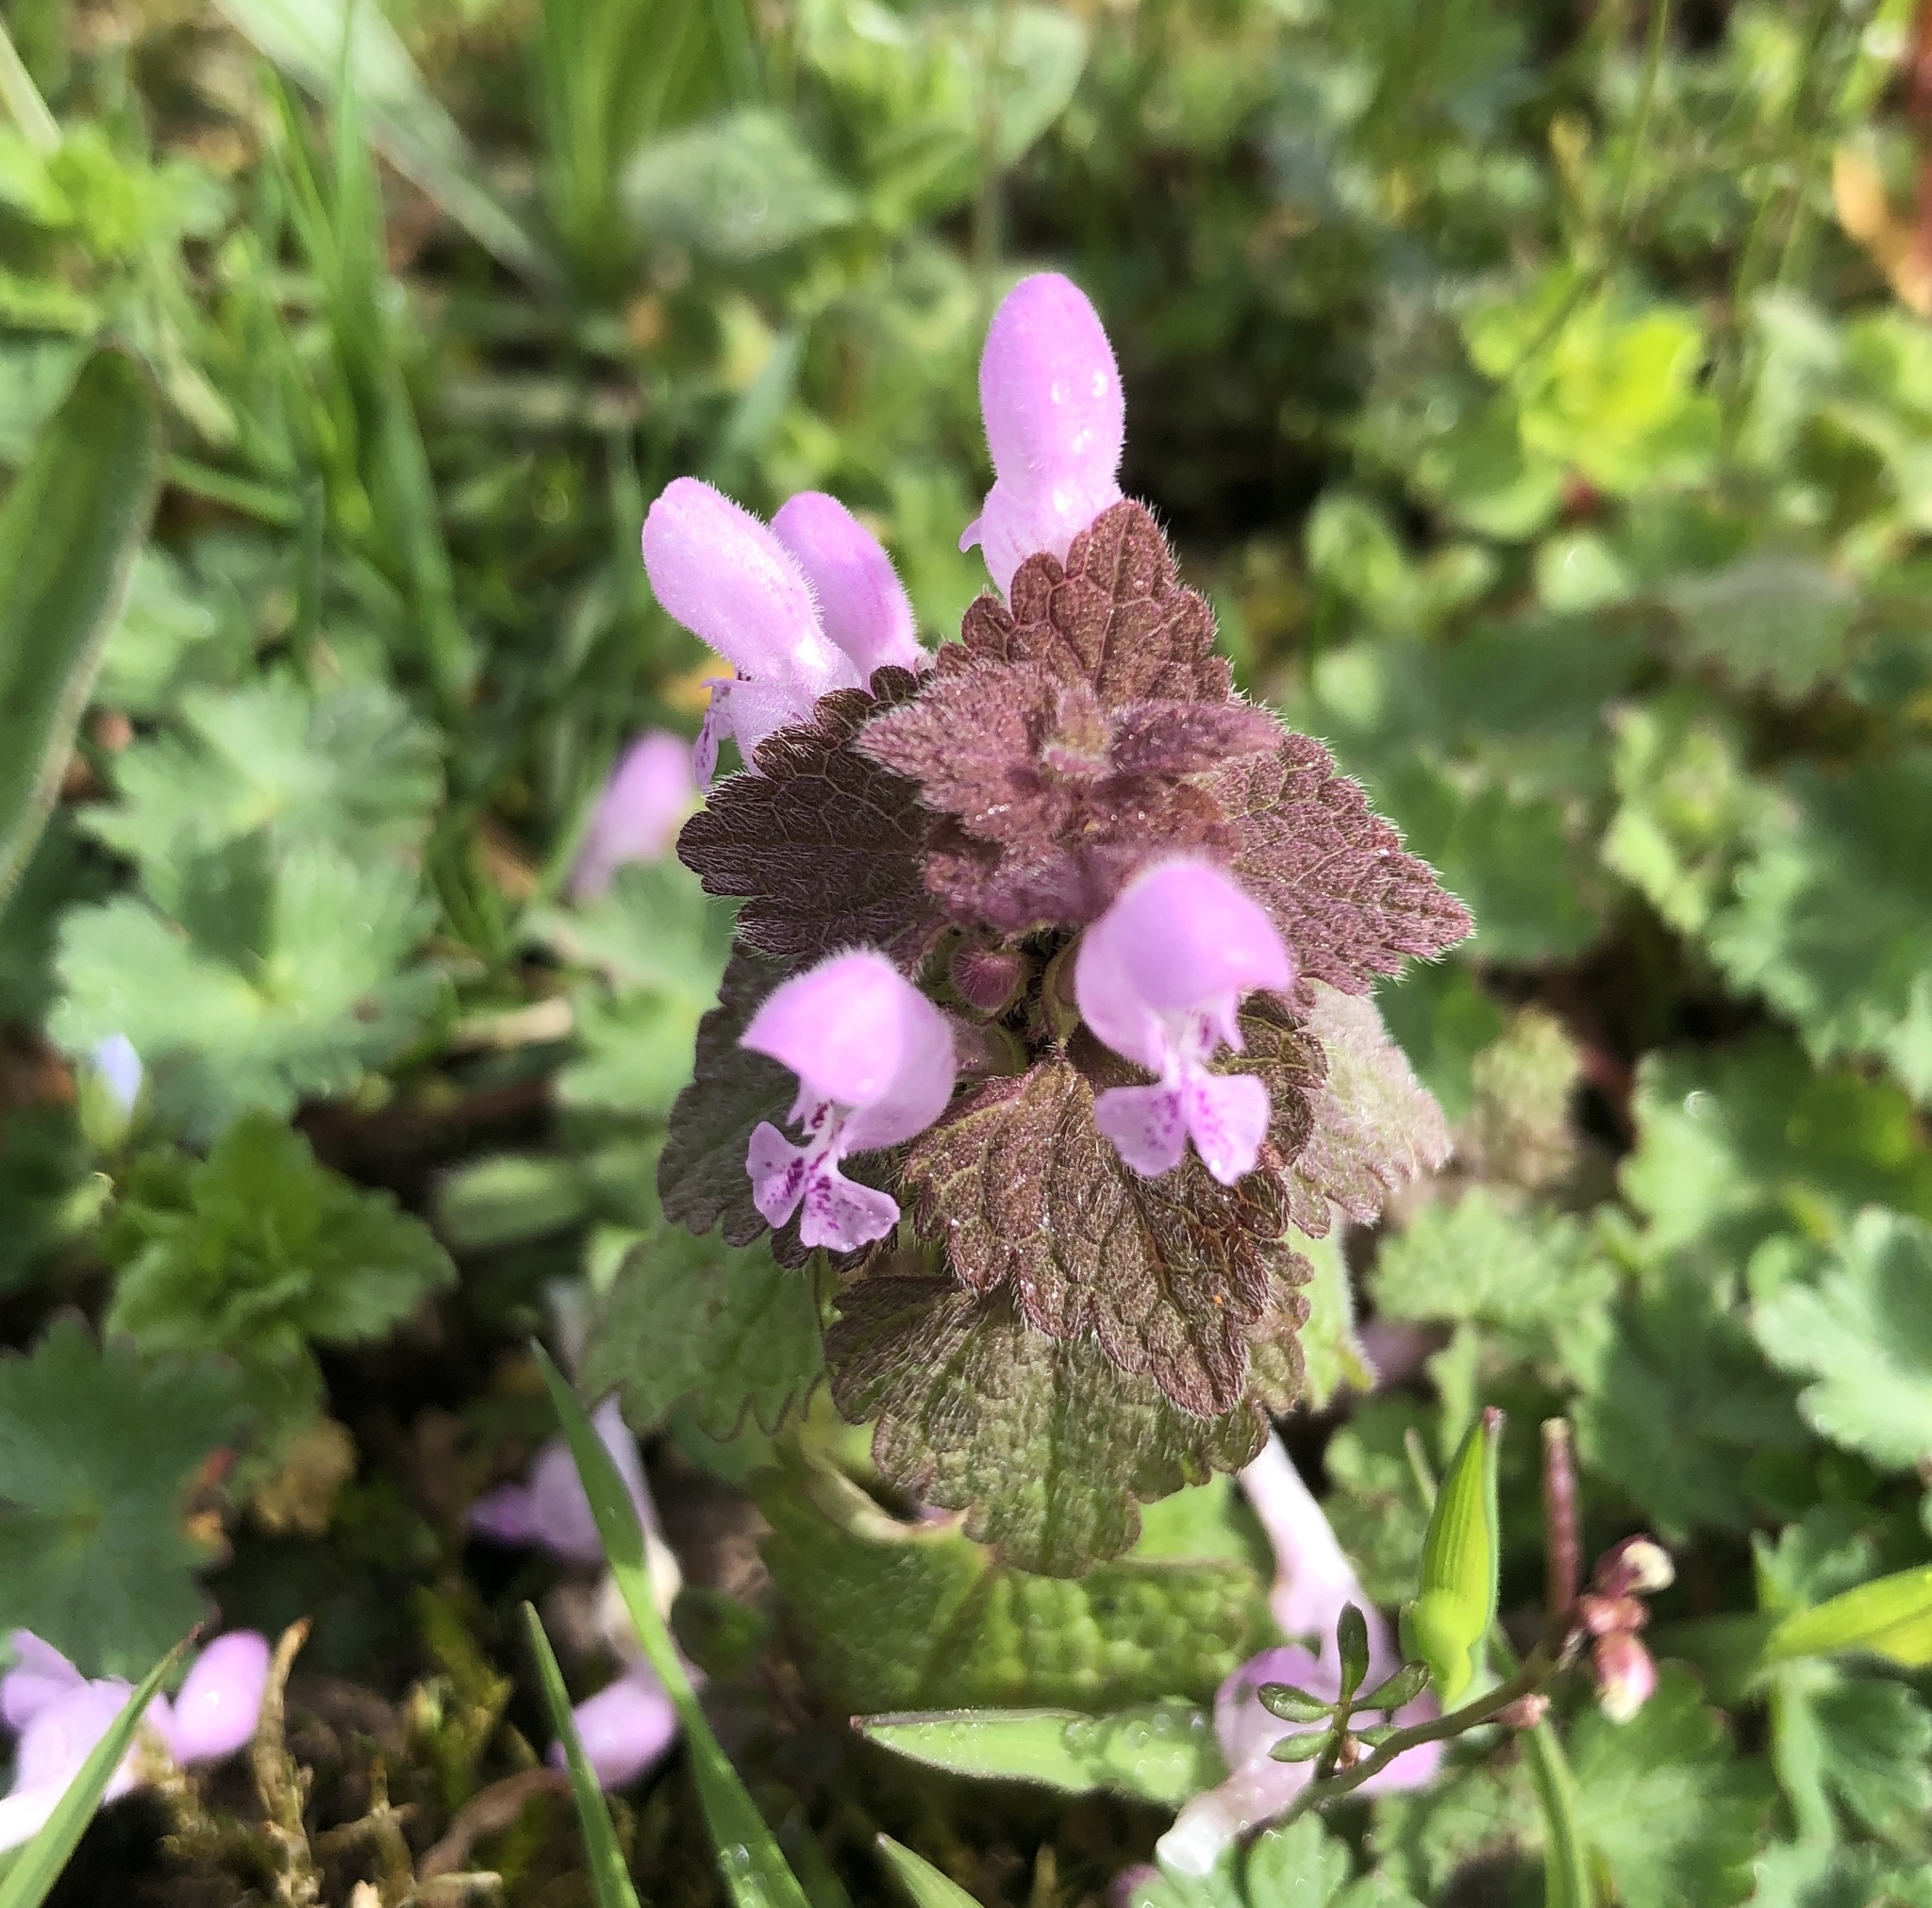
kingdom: Plantae
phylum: Tracheophyta
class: Magnoliopsida
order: Lamiales
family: Lamiaceae
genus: Lamium
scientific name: Lamium purpureum
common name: Red dead-nettle
